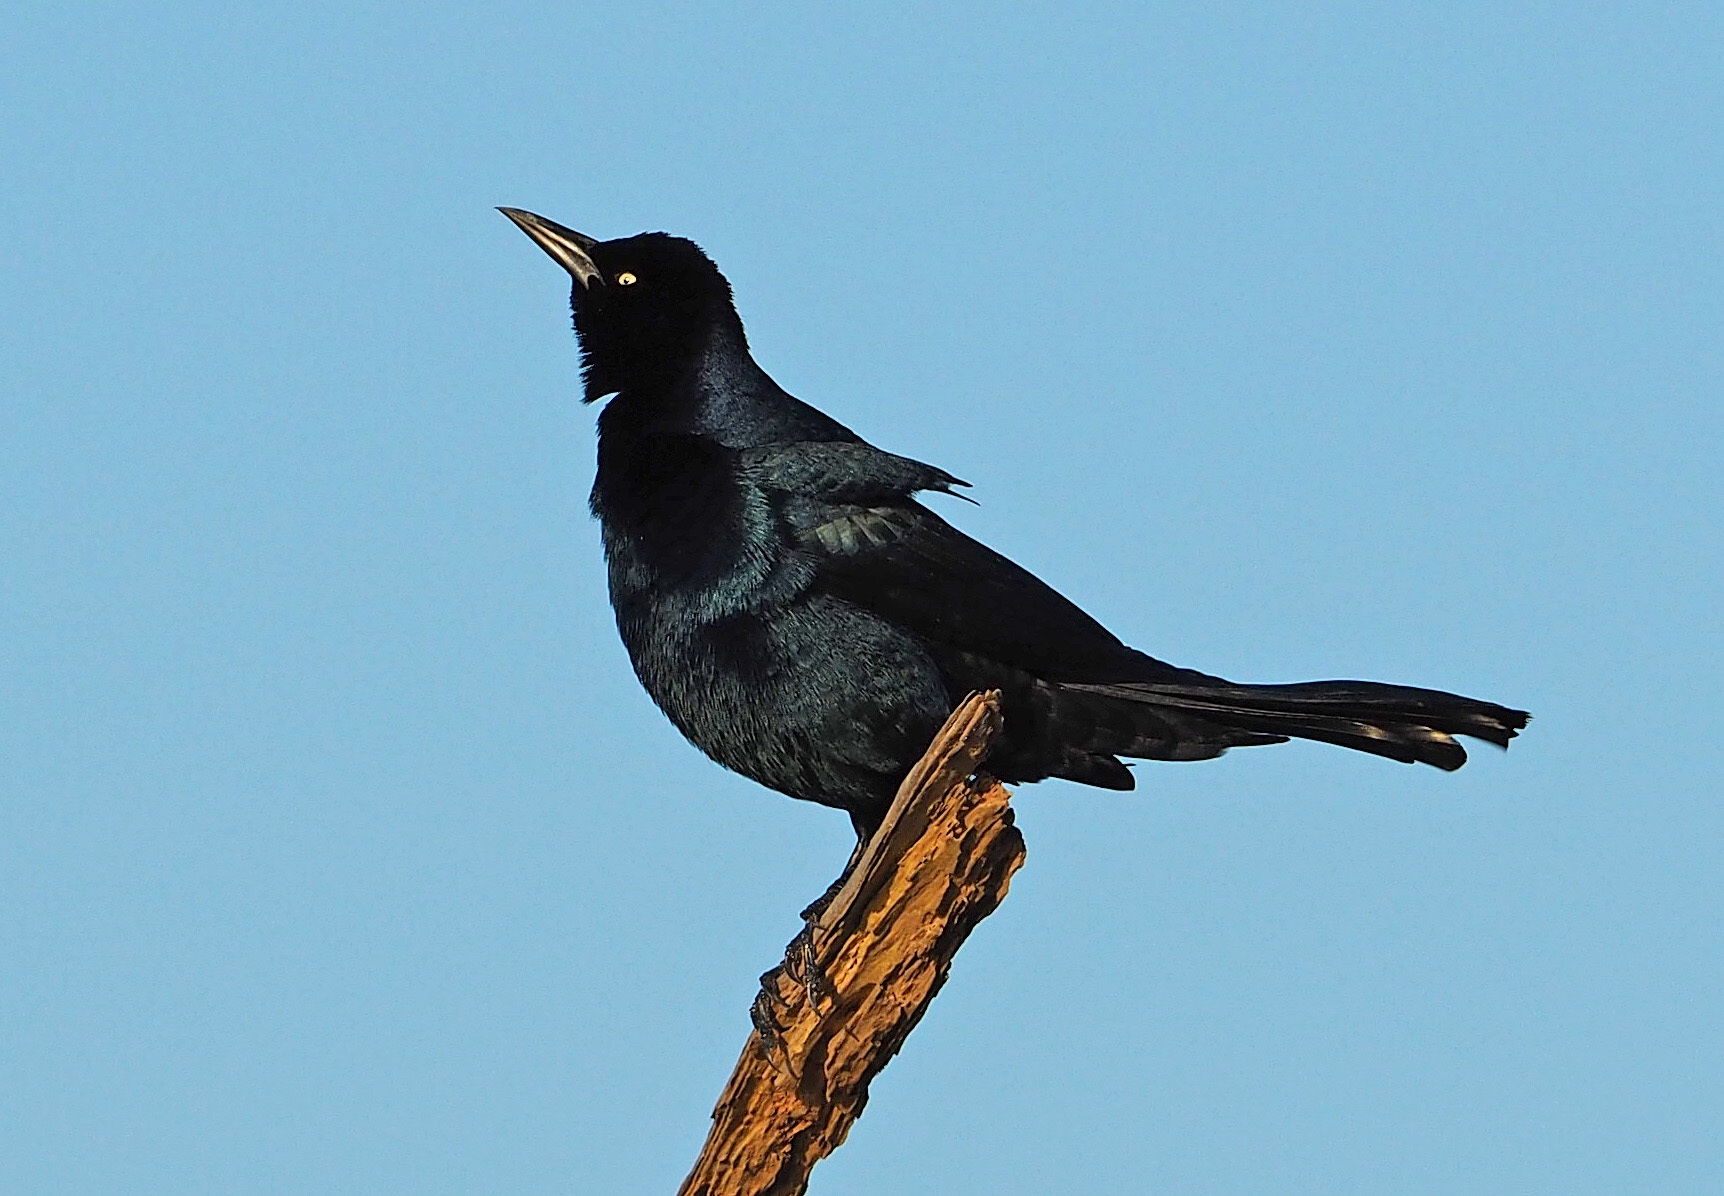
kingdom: Animalia
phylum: Chordata
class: Aves
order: Passeriformes
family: Icteridae
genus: Quiscalus
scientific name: Quiscalus major
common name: Boat-tailed grackle
